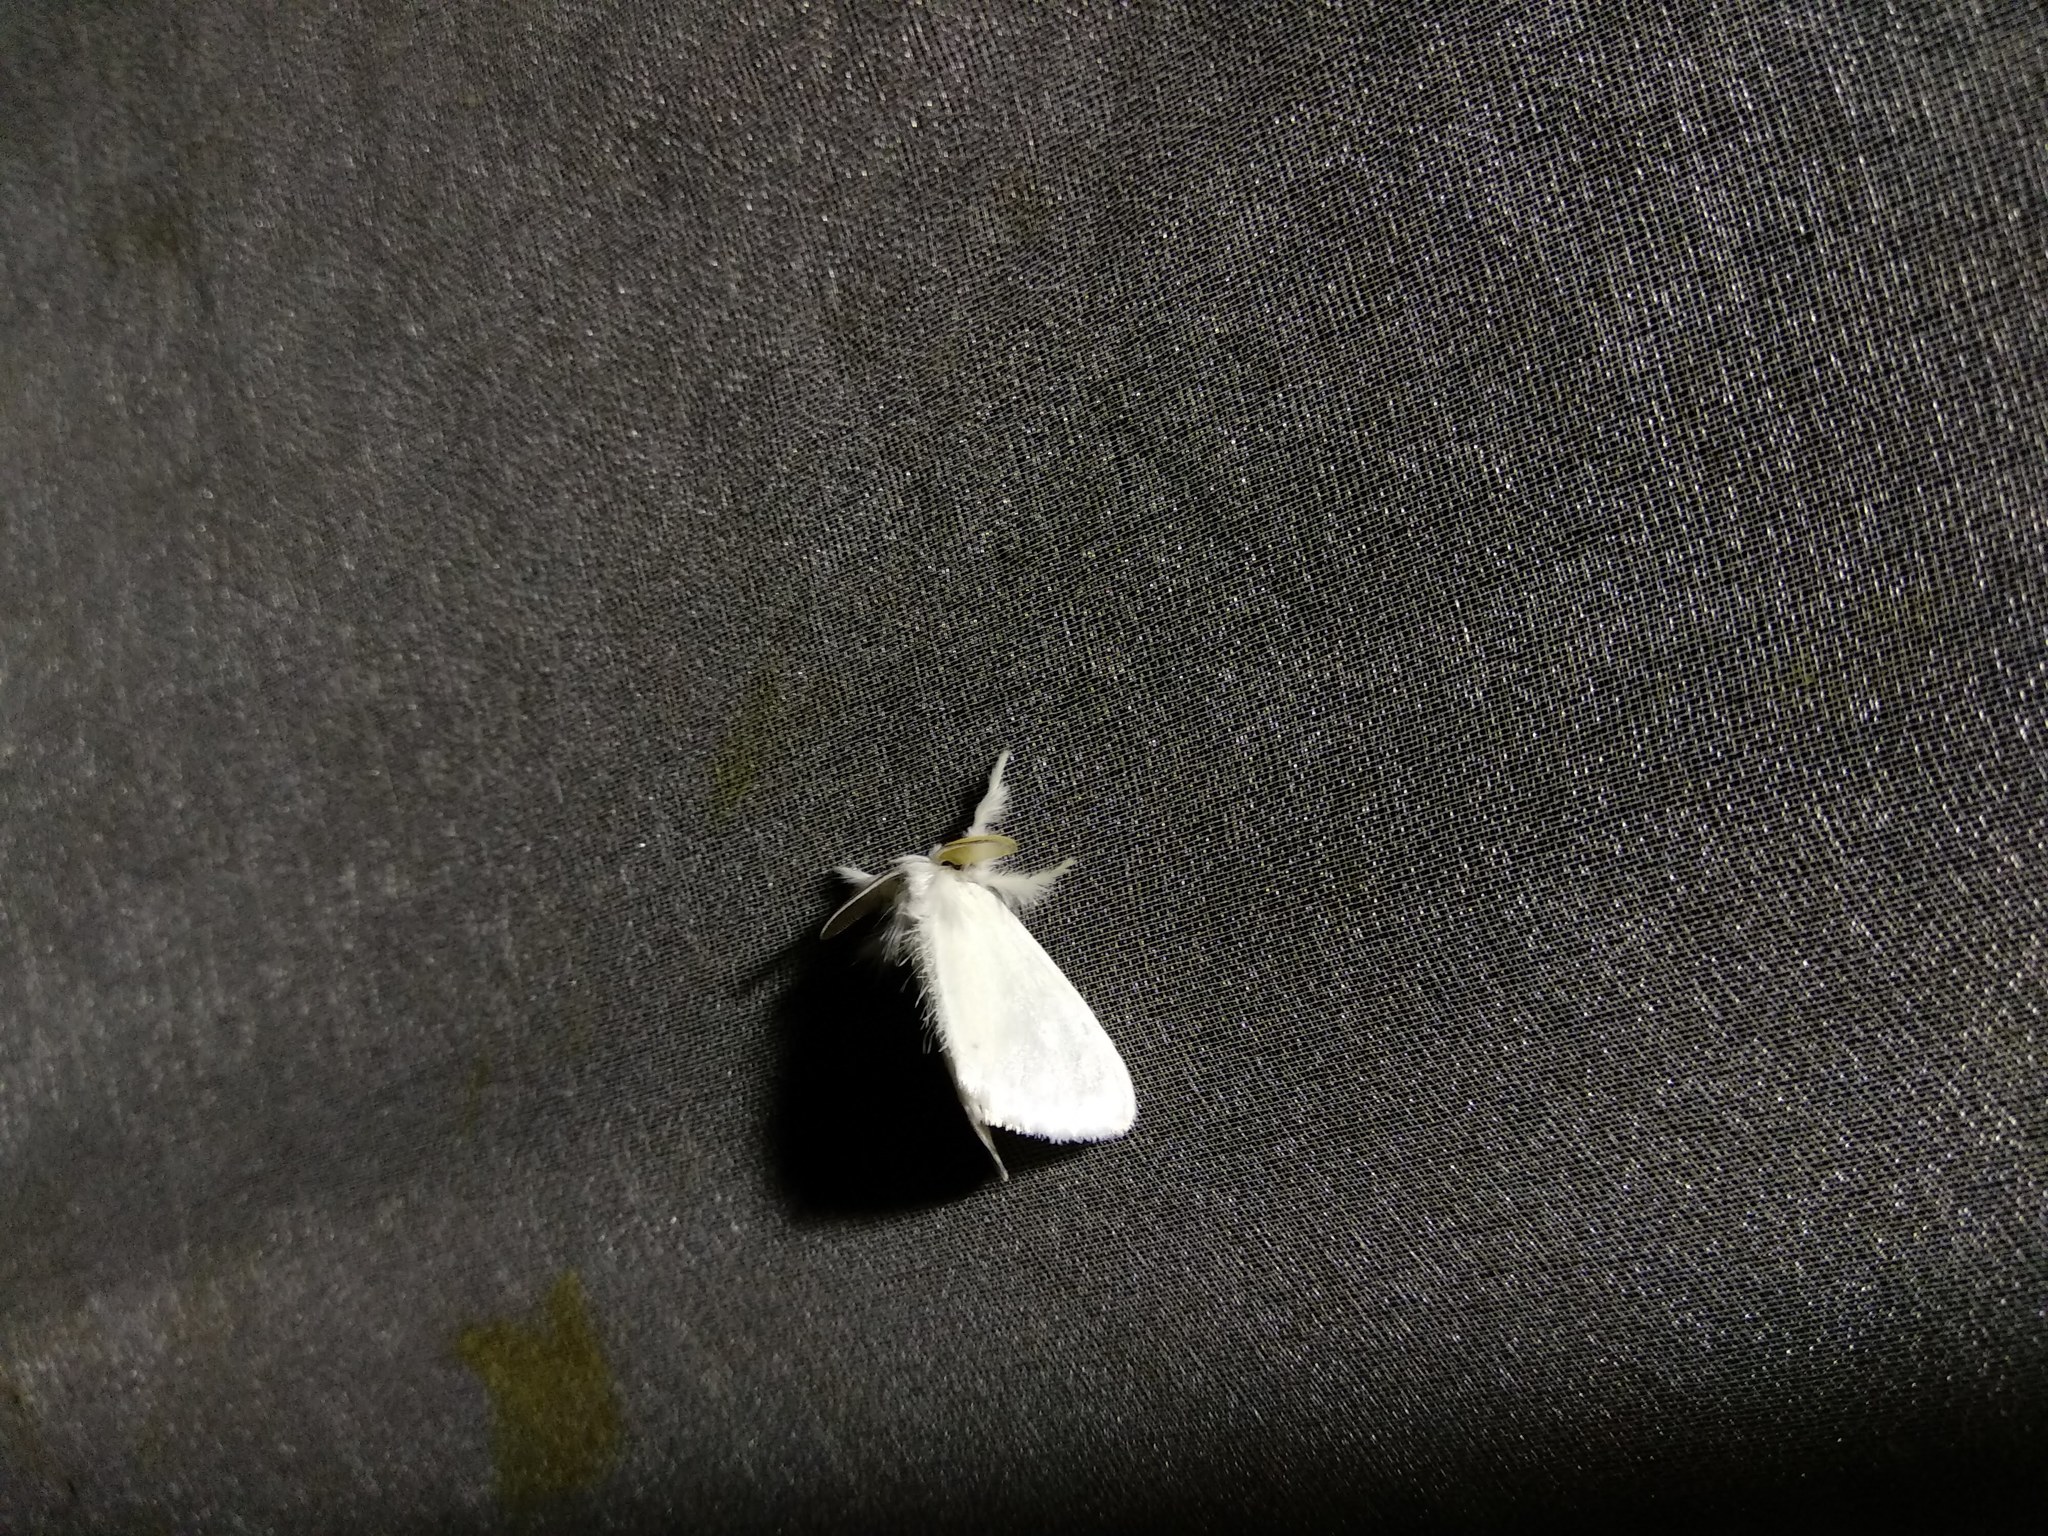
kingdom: Animalia
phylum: Arthropoda
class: Insecta
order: Lepidoptera
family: Erebidae
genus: Sphrageidus
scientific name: Sphrageidus similis
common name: Yellow-tail
